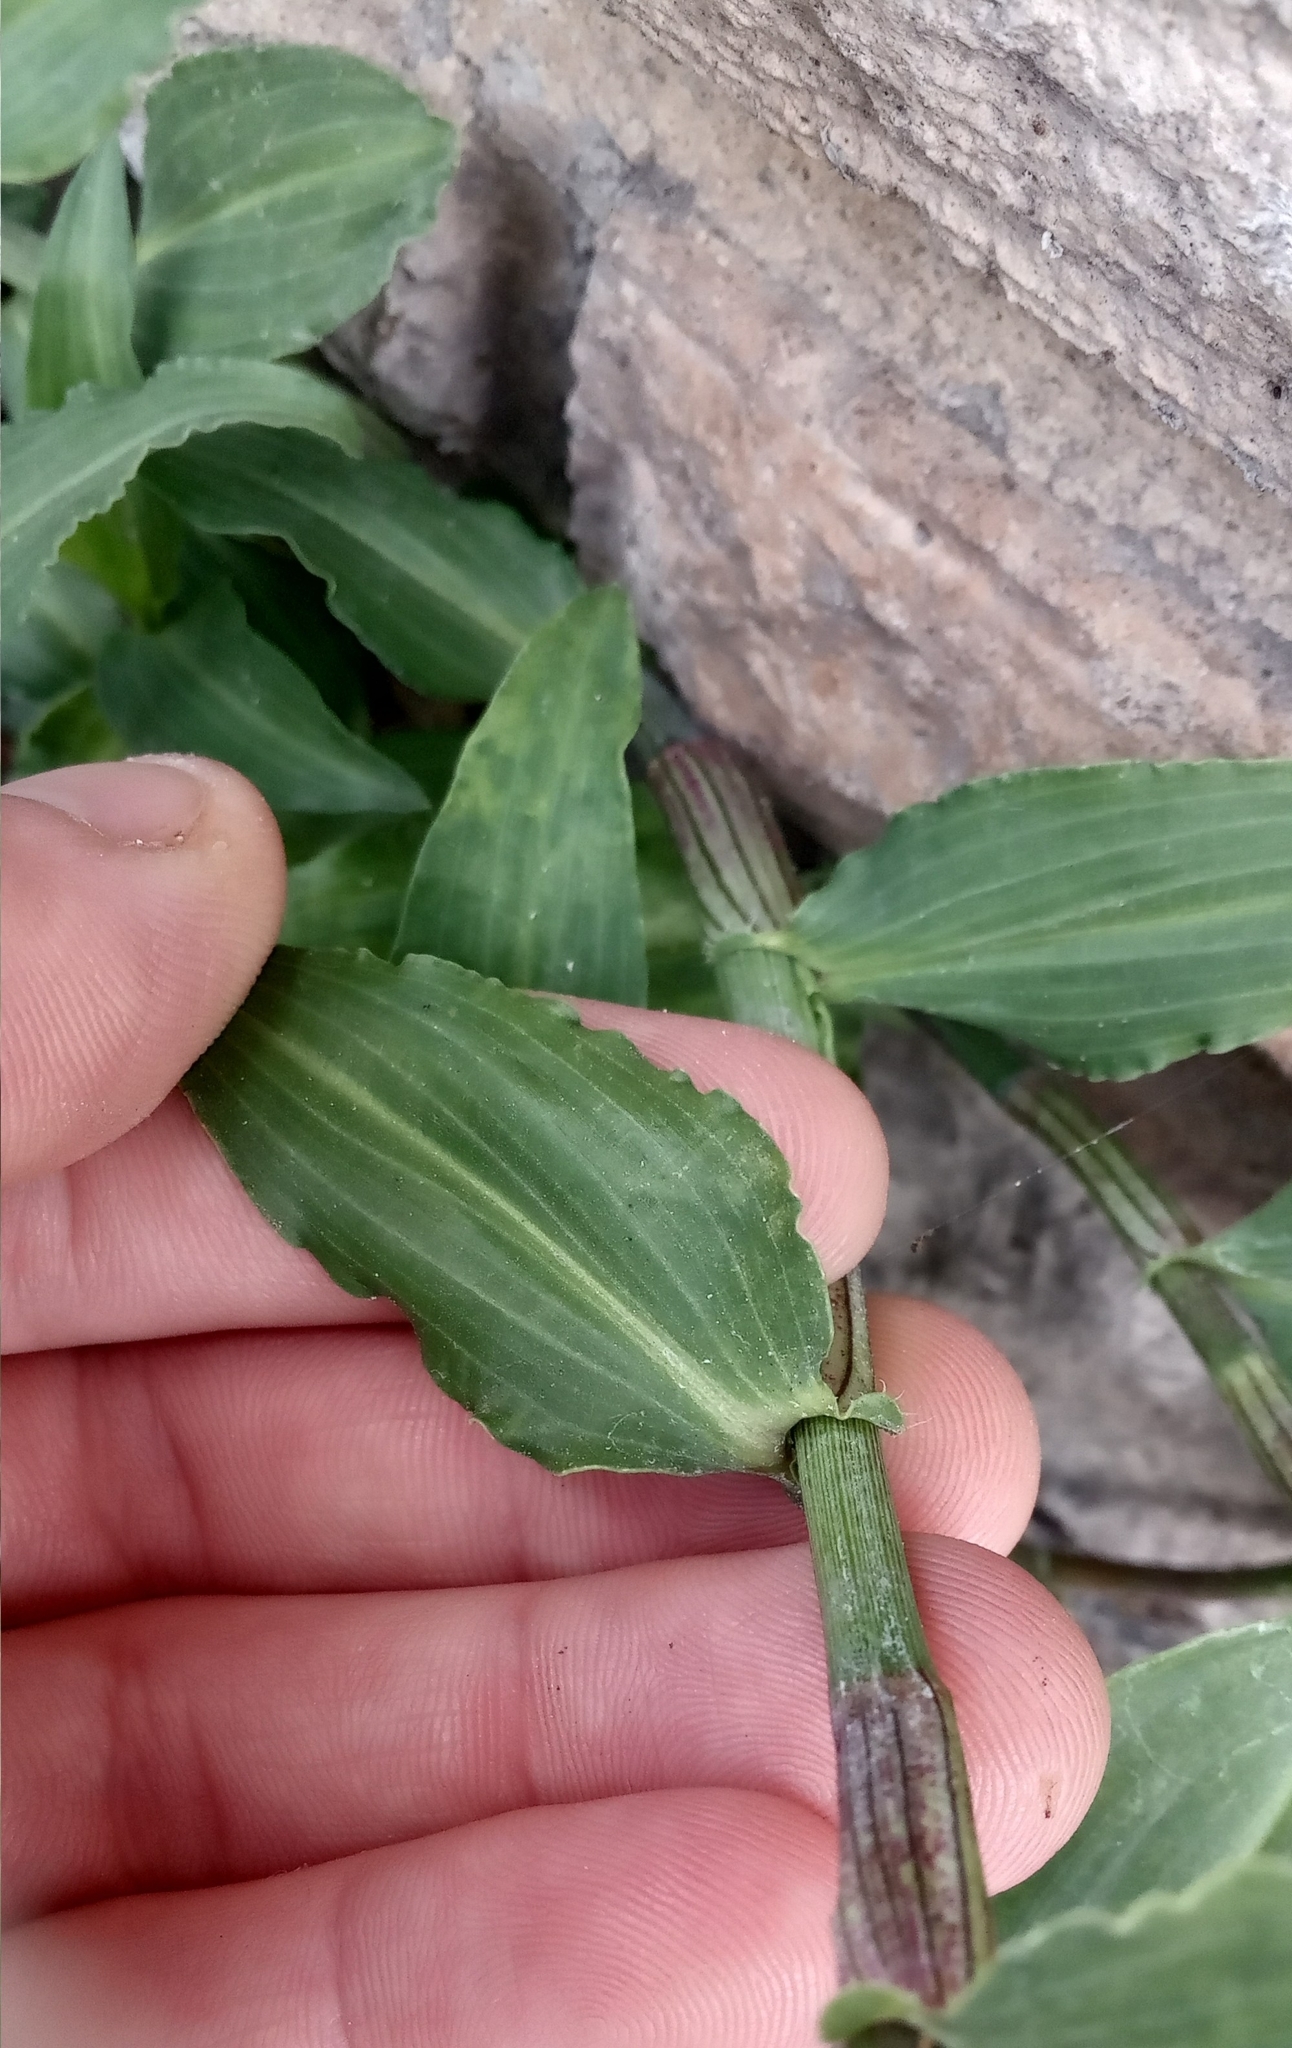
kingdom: Plantae
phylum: Tracheophyta
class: Liliopsida
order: Commelinales
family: Commelinaceae
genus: Commelina
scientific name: Commelina erecta
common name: Blousel blommetjie
